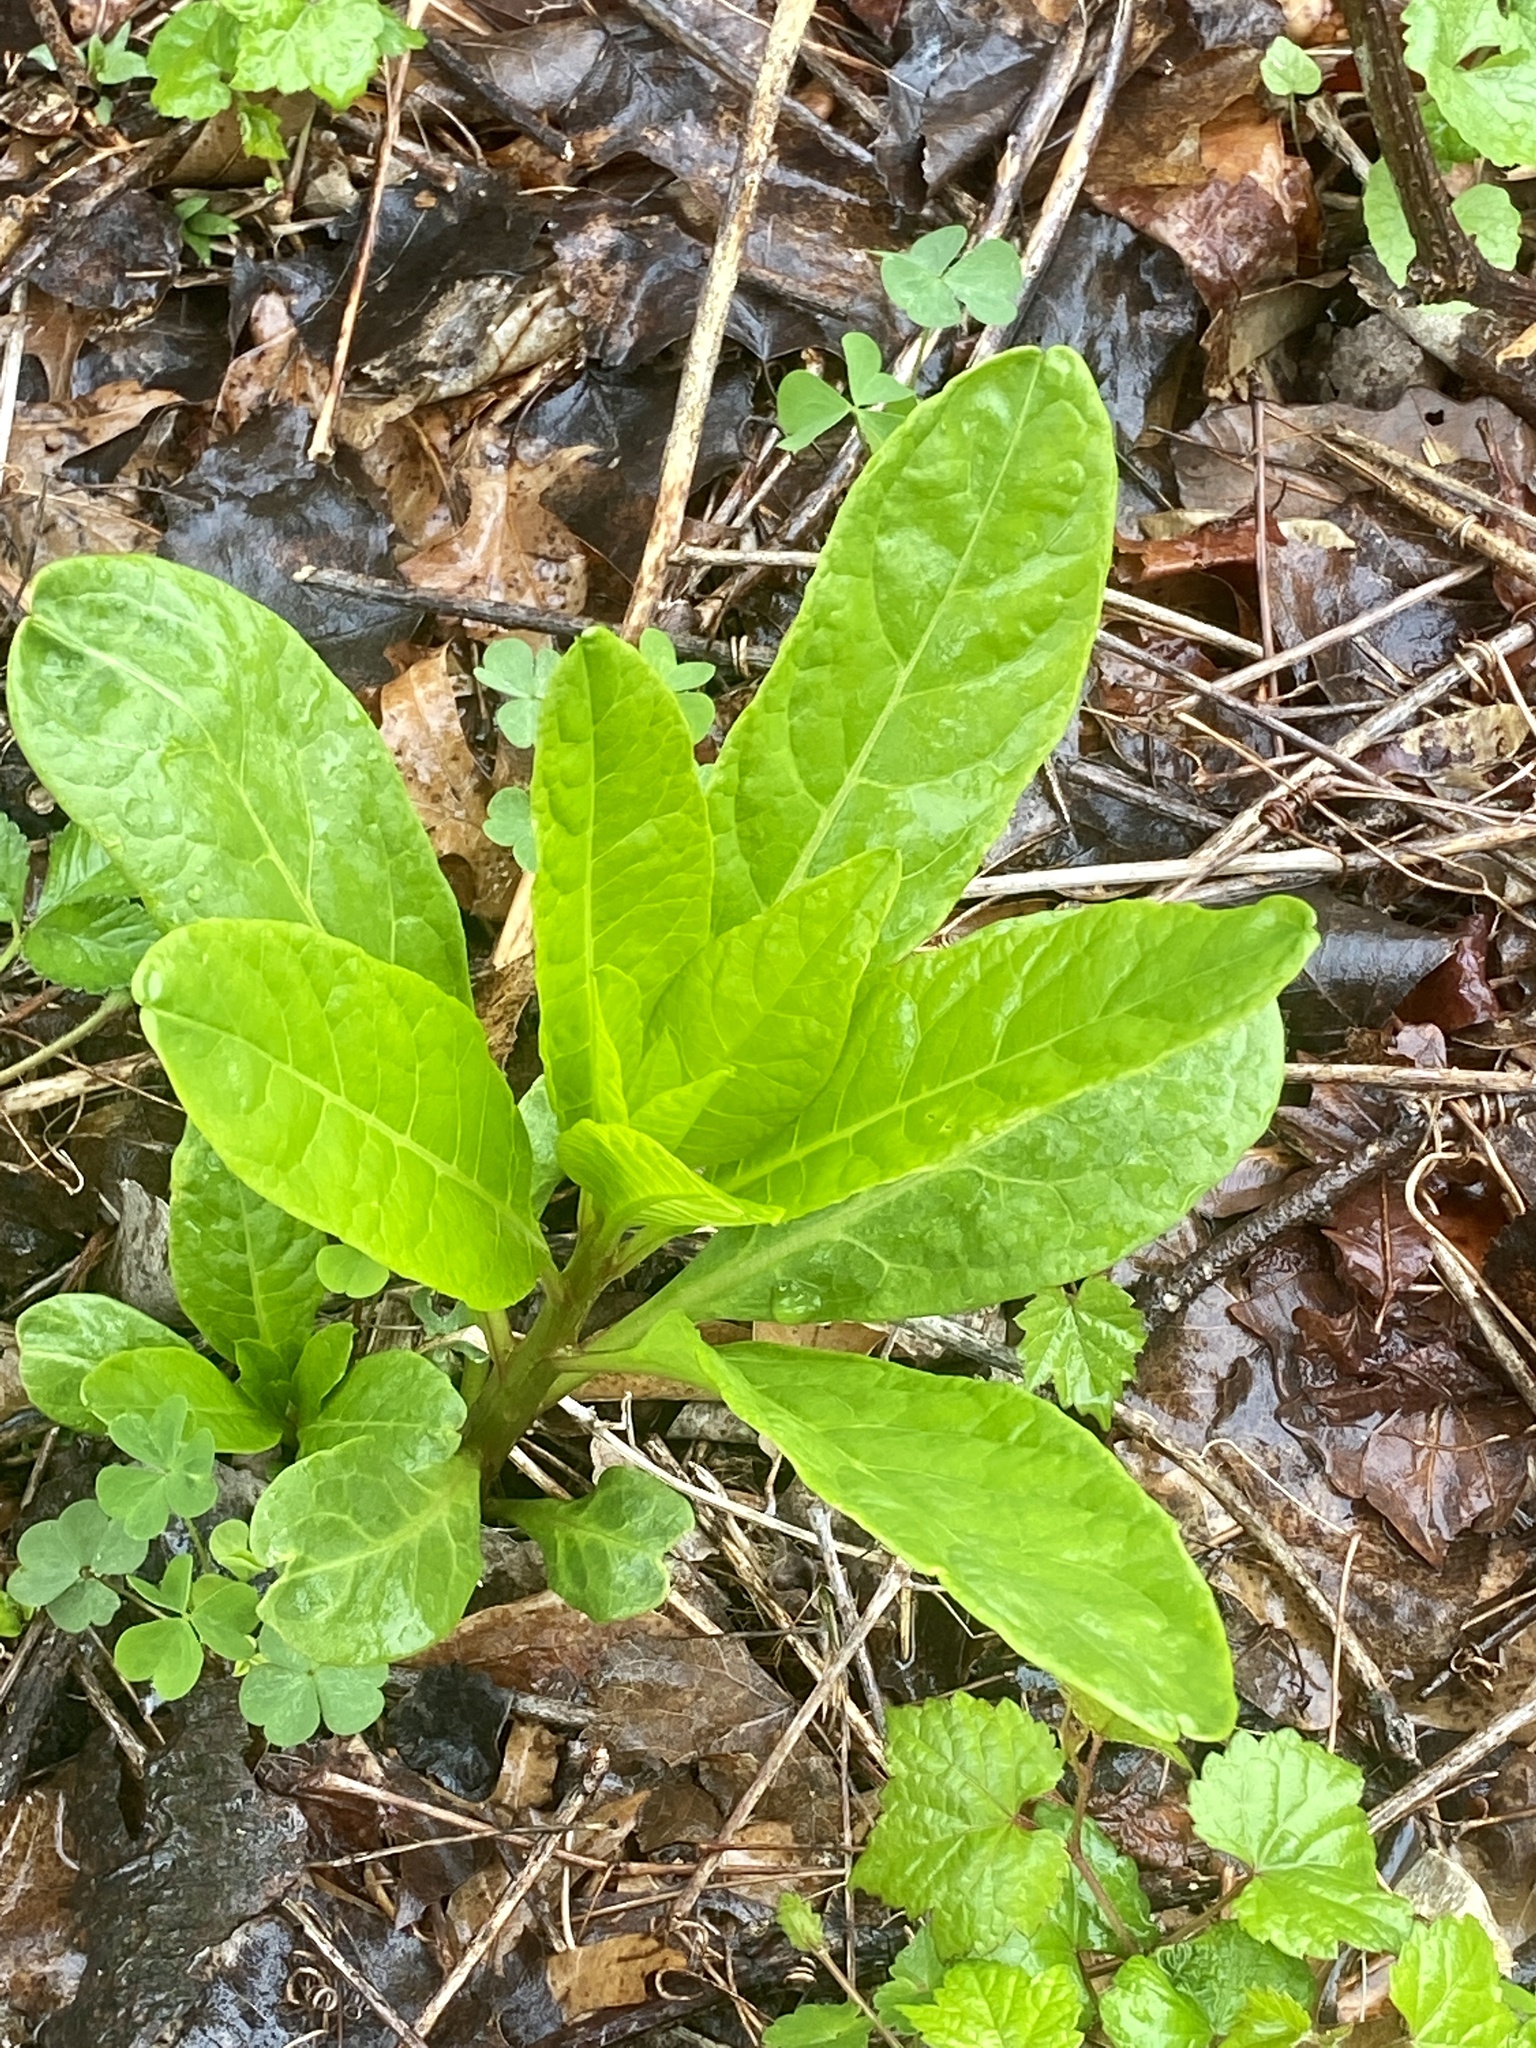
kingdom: Plantae
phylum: Tracheophyta
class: Magnoliopsida
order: Caryophyllales
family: Phytolaccaceae
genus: Phytolacca
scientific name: Phytolacca americana
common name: American pokeweed
